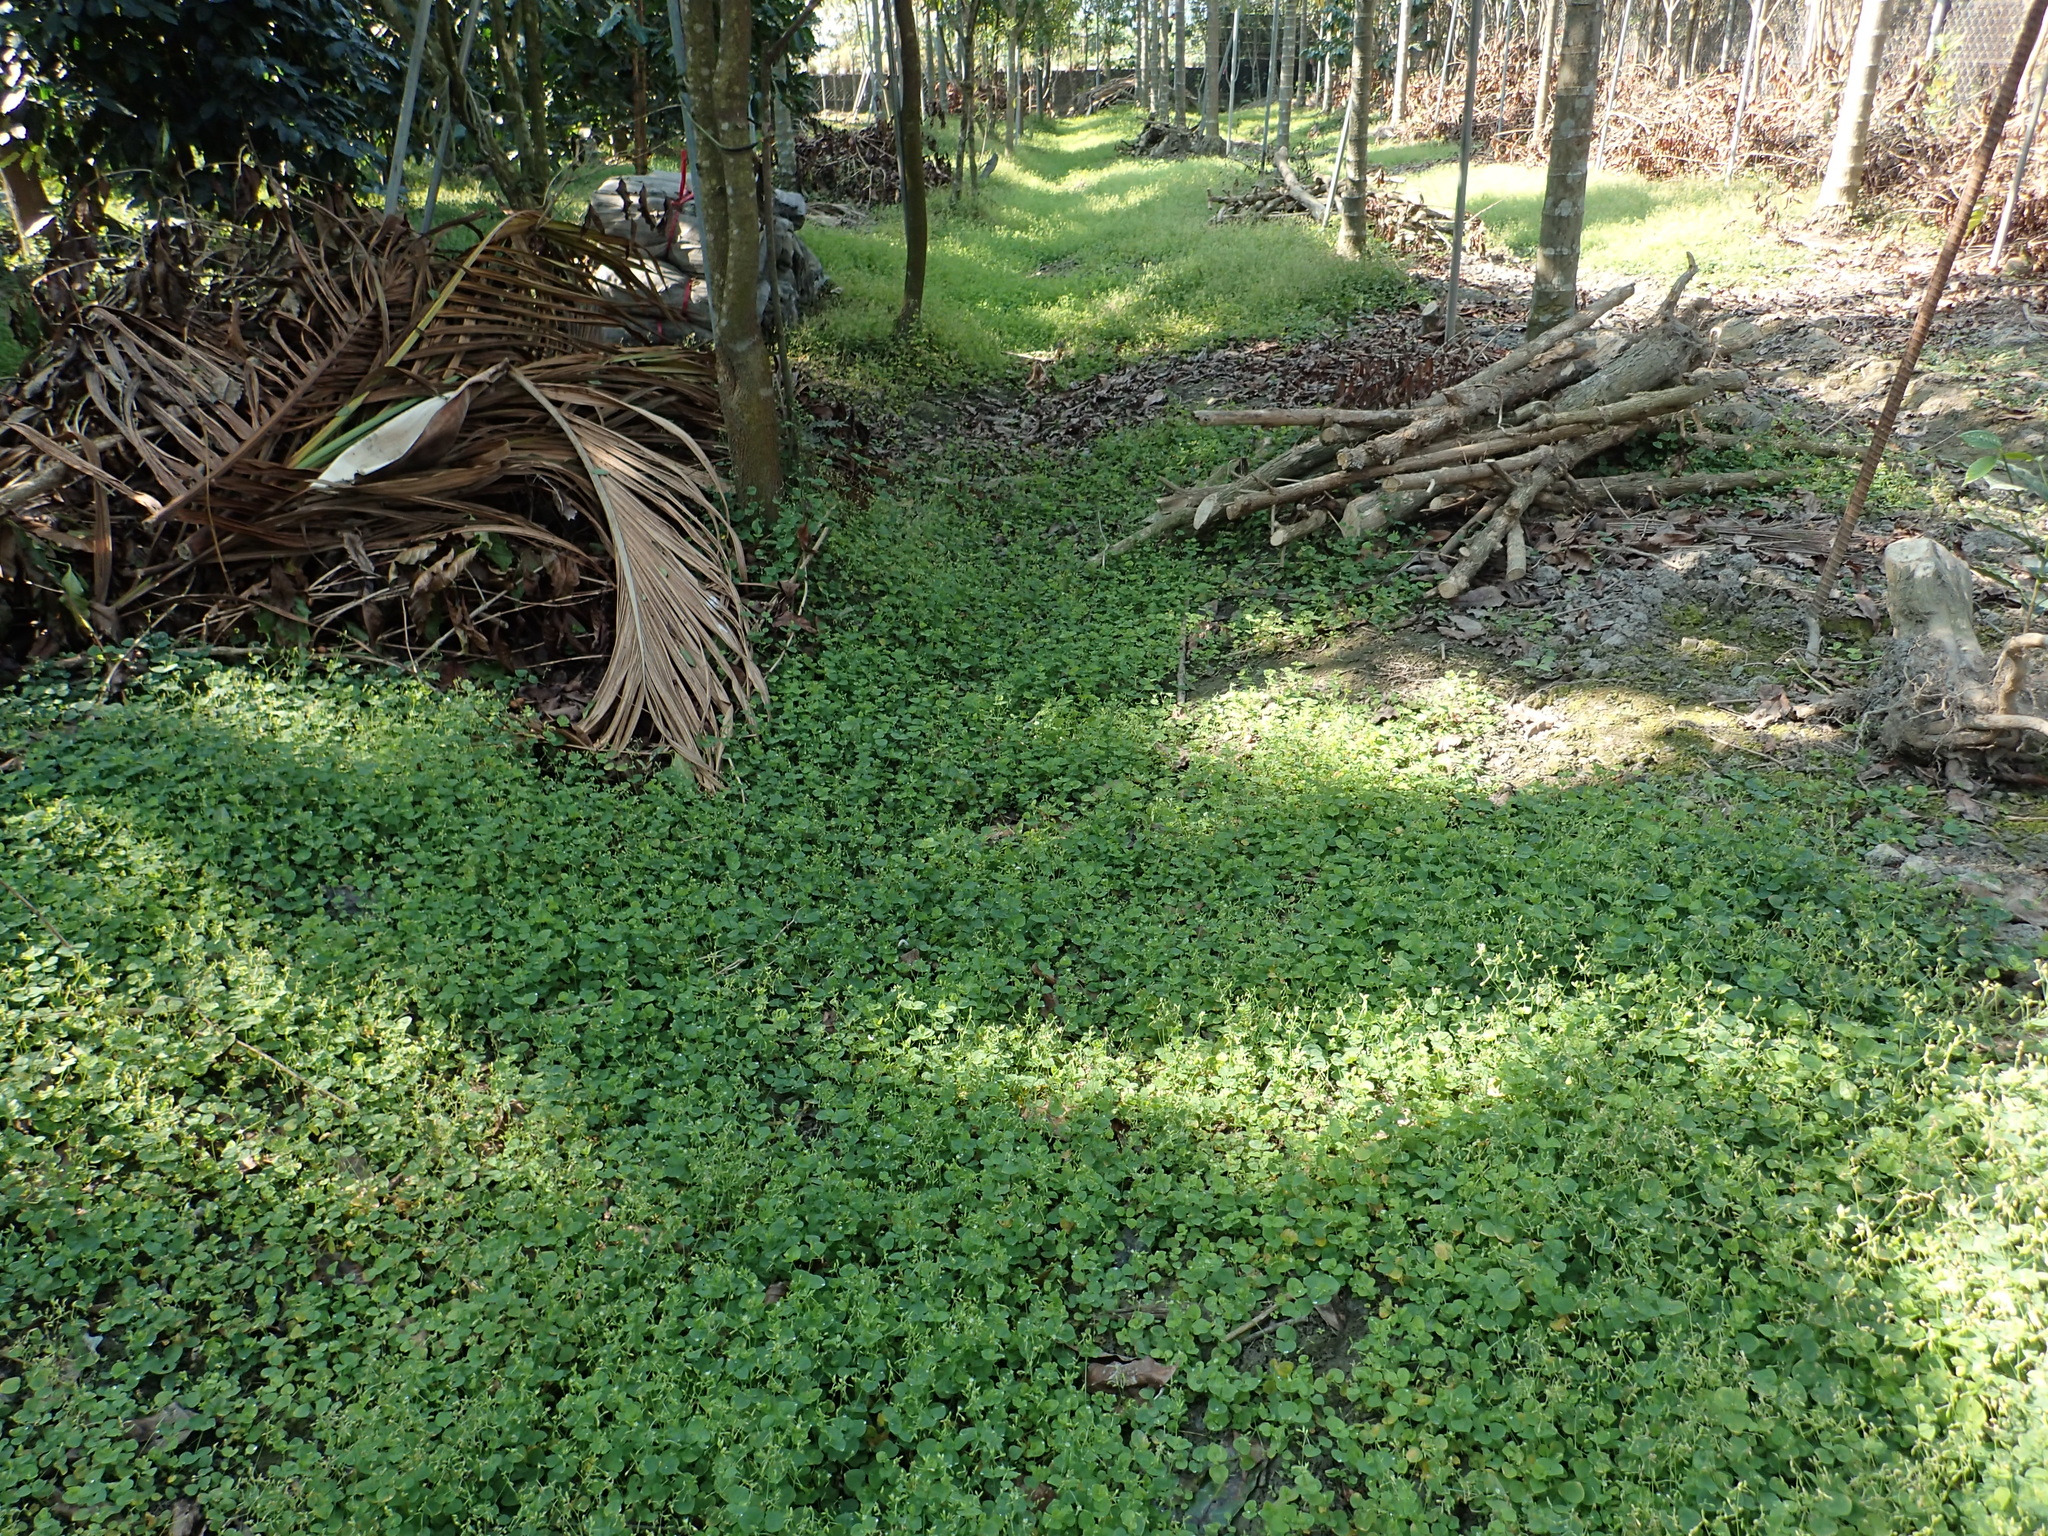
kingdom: Plantae
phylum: Tracheophyta
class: Magnoliopsida
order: Caryophyllales
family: Caryophyllaceae
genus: Drymaria
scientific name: Drymaria cordata
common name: Whitesnow
